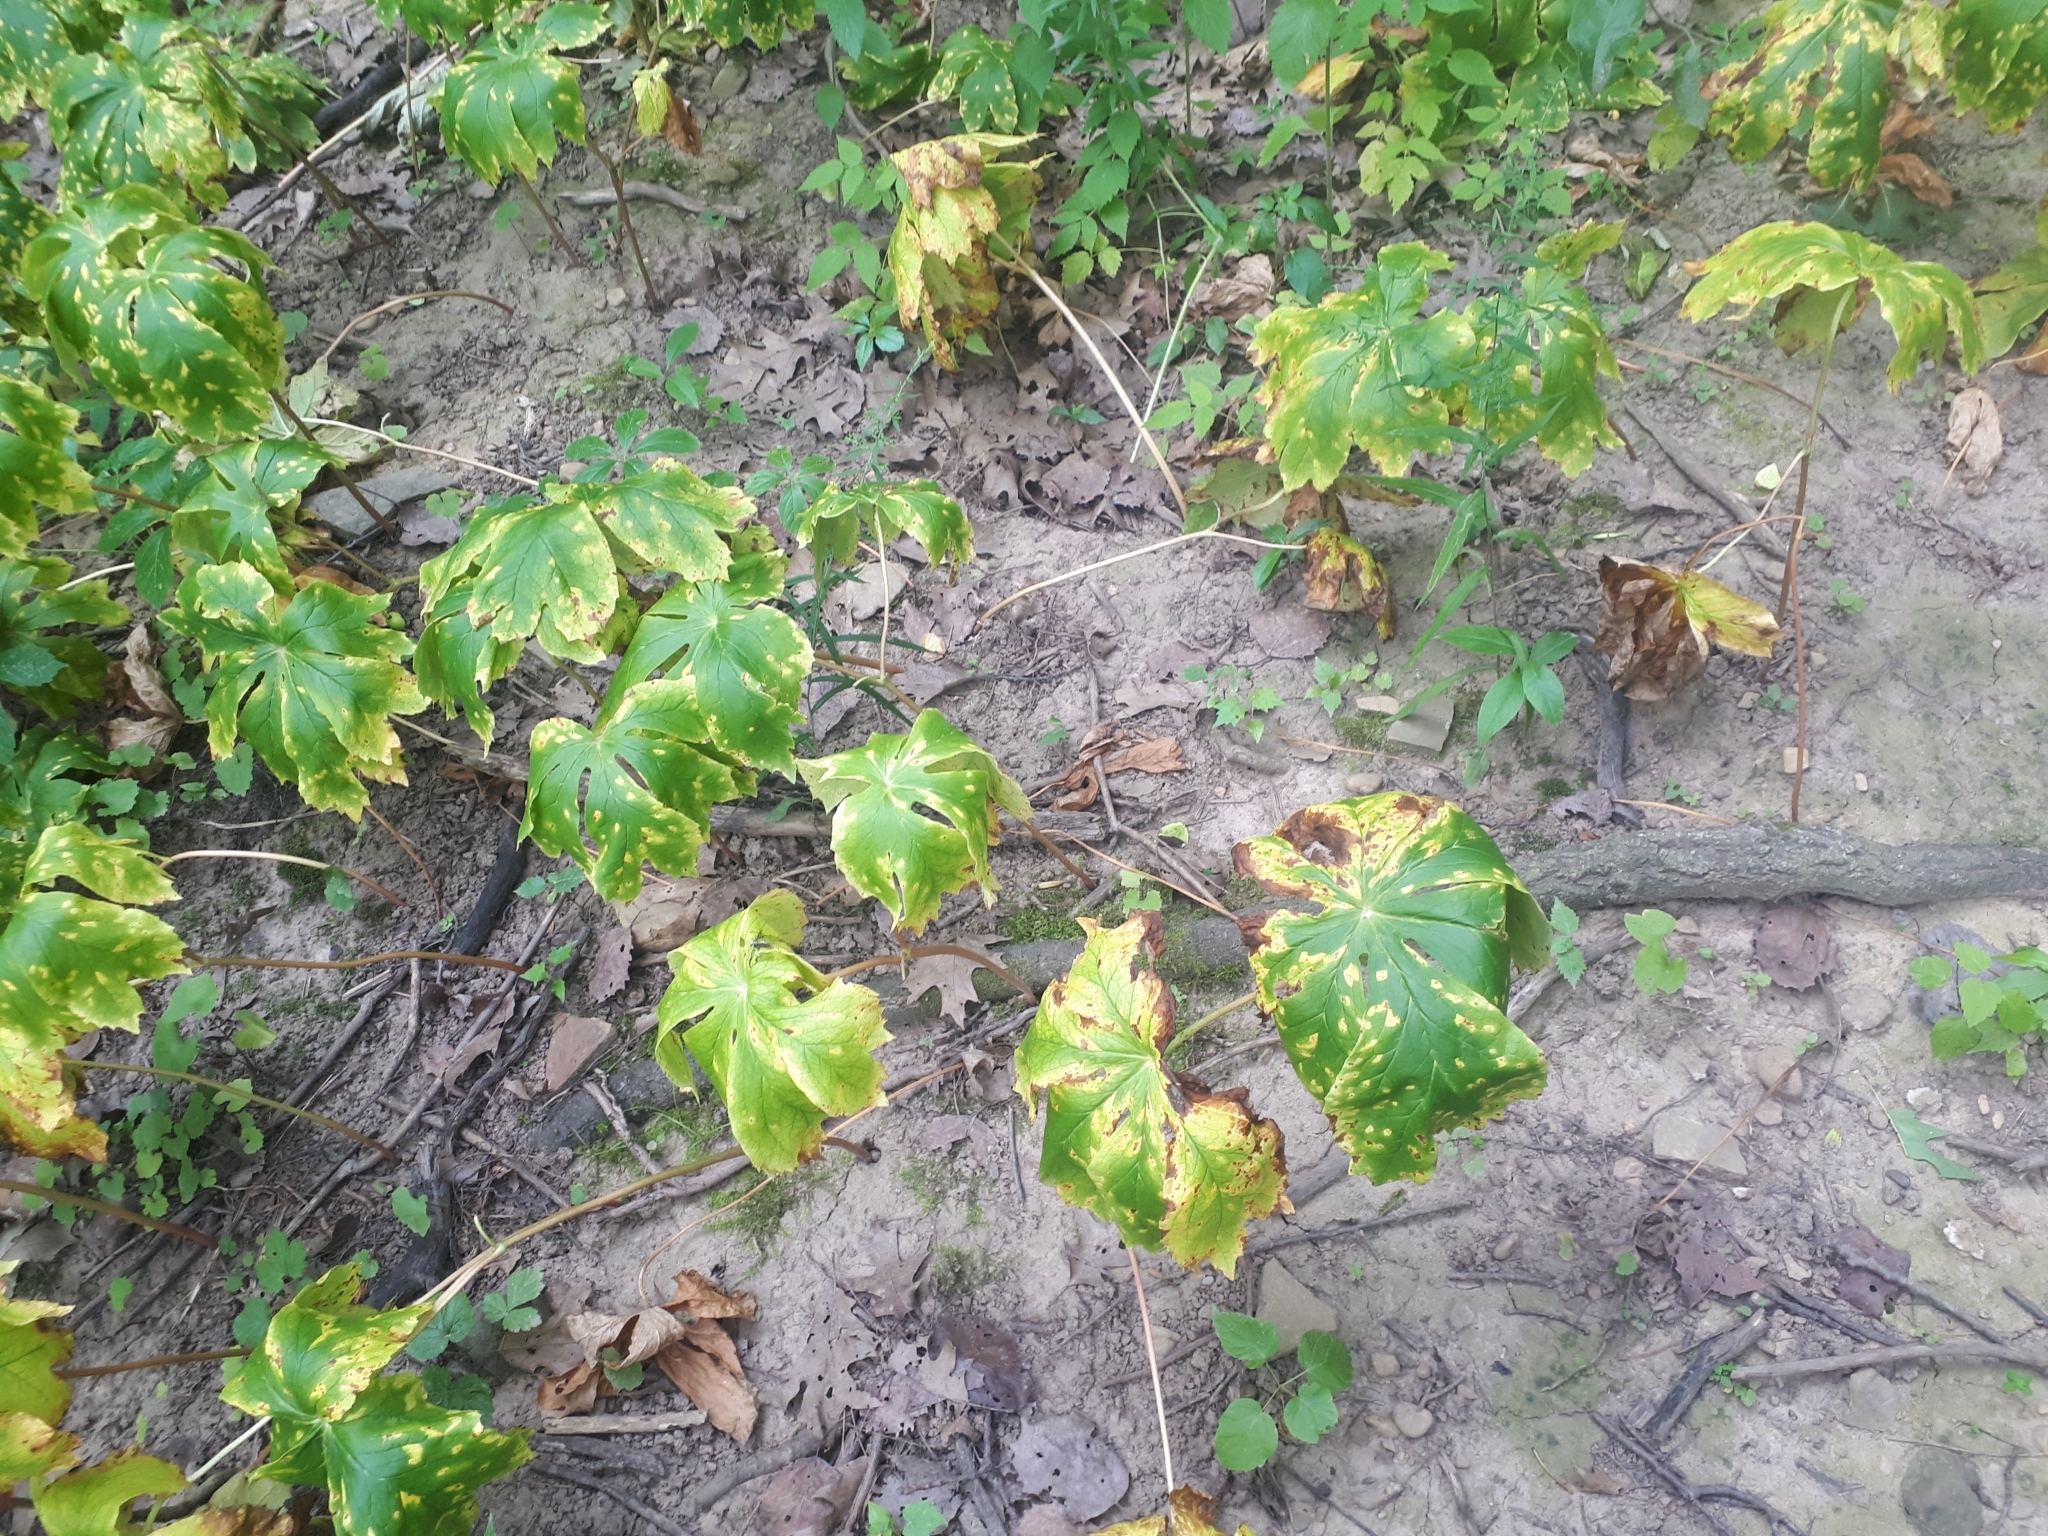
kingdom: Plantae
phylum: Tracheophyta
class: Magnoliopsida
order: Ranunculales
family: Berberidaceae
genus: Podophyllum
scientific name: Podophyllum peltatum
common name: Wild mandrake
